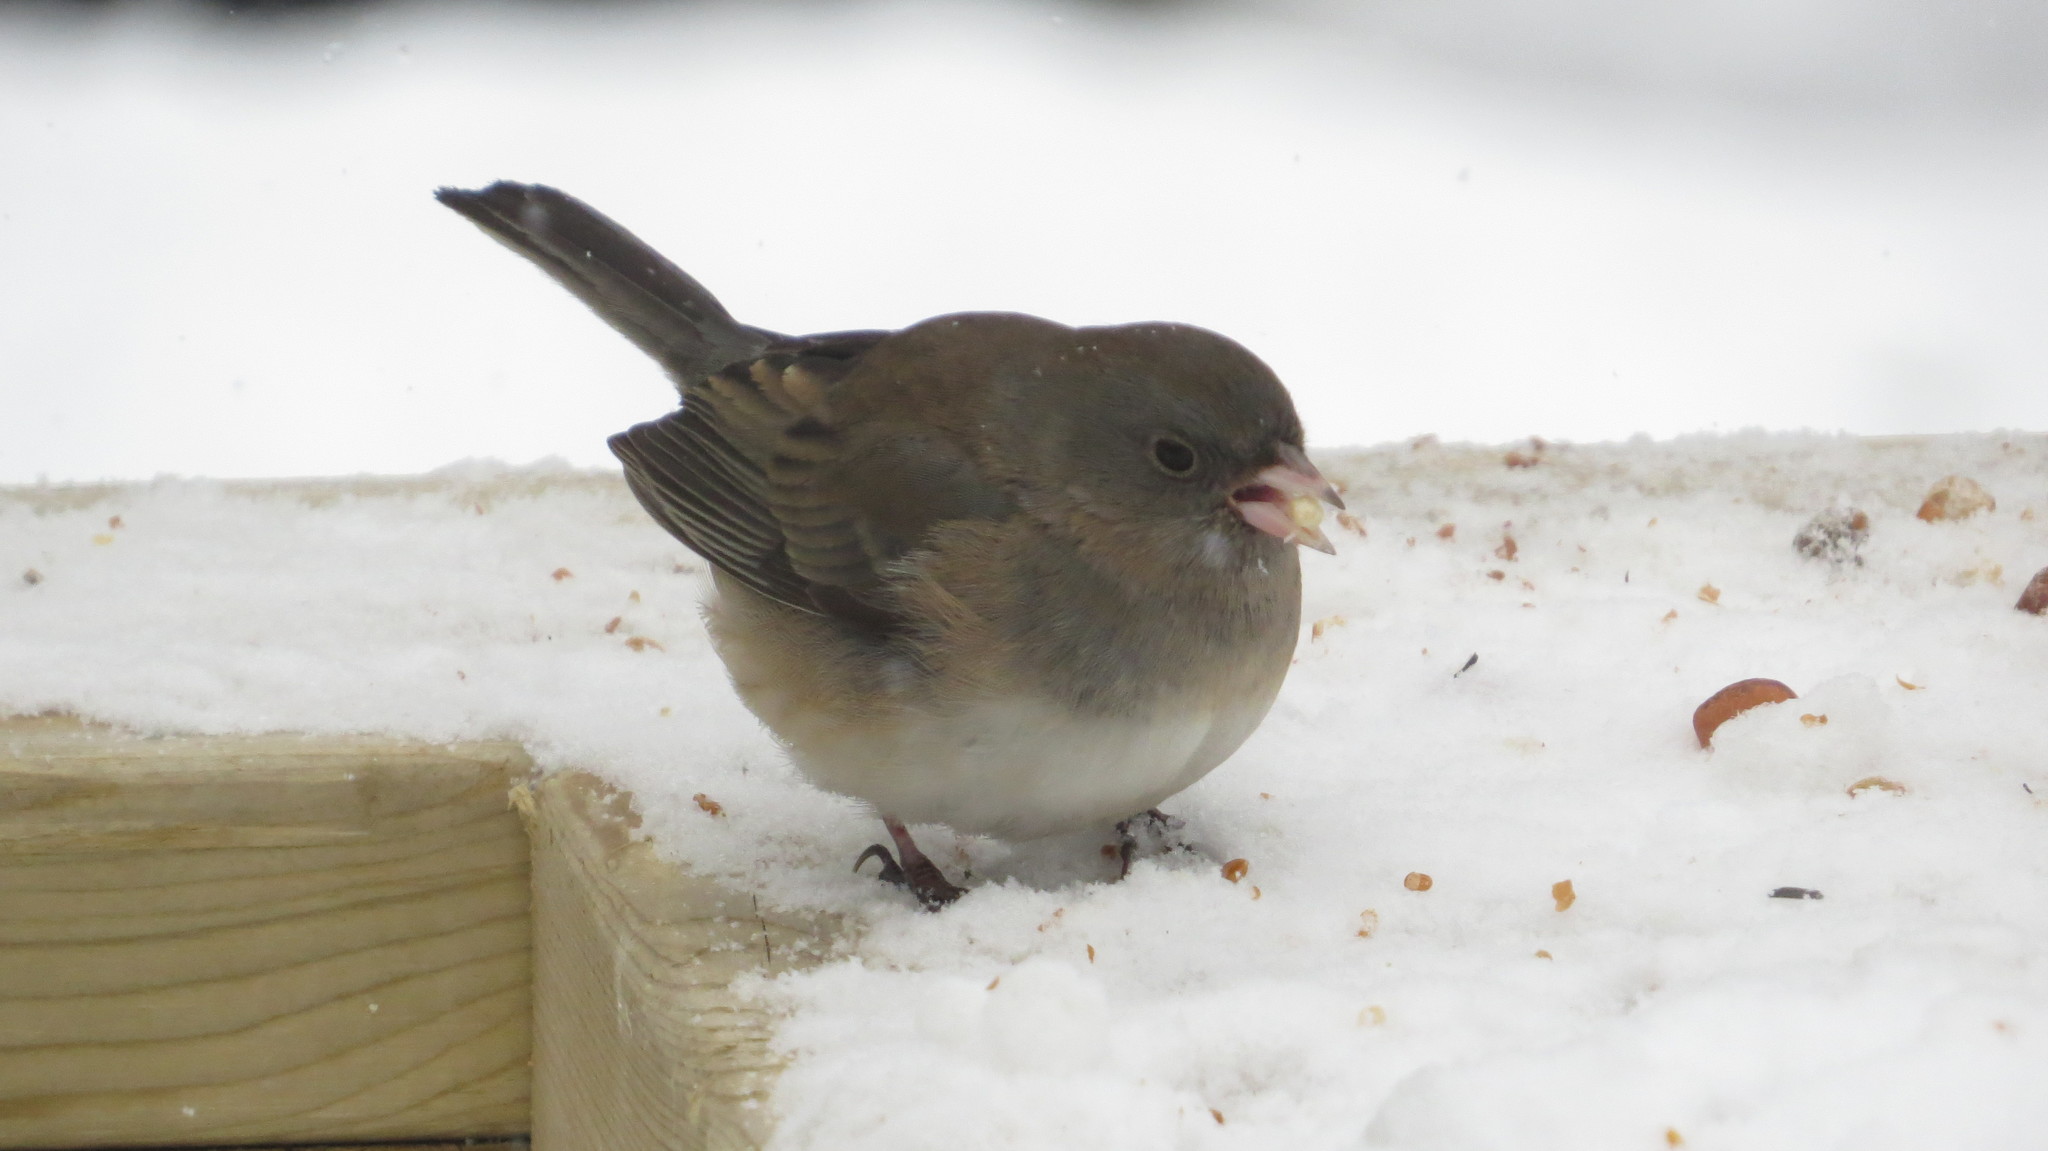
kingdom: Animalia
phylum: Chordata
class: Aves
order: Passeriformes
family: Passerellidae
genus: Junco
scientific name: Junco hyemalis
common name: Dark-eyed junco
